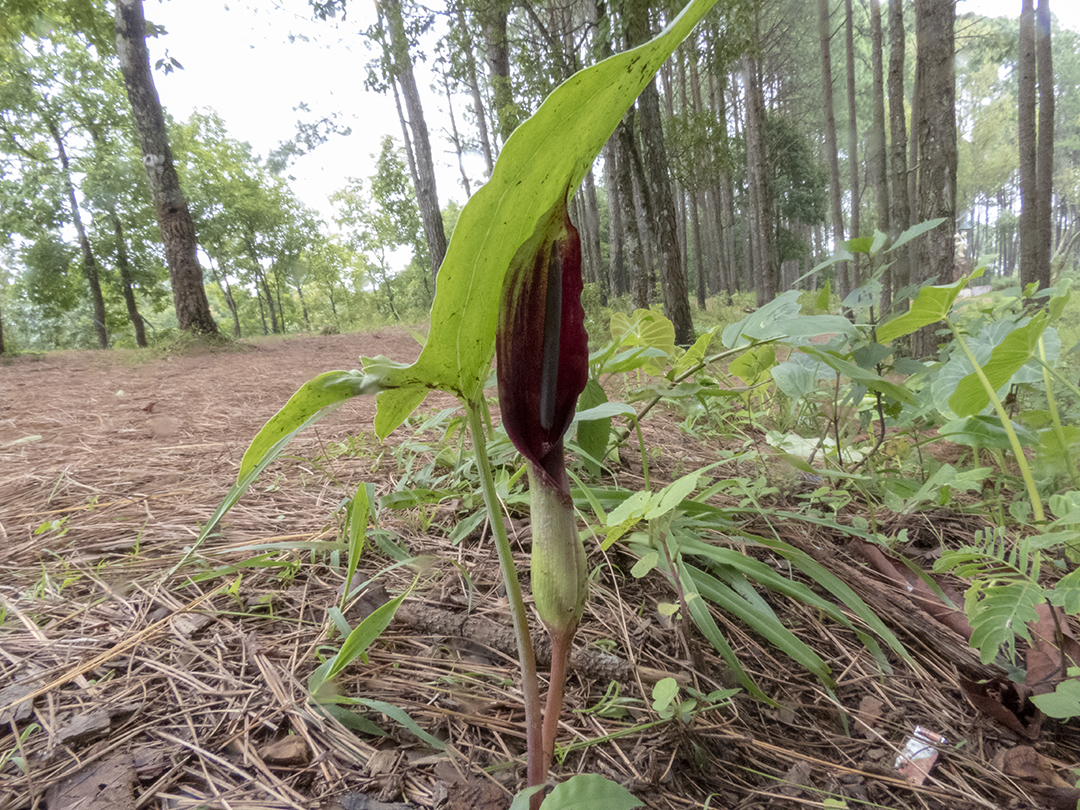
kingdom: Plantae
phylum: Tracheophyta
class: Liliopsida
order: Alismatales
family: Araceae
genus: Sauromatum
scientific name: Sauromatum diversifolium
